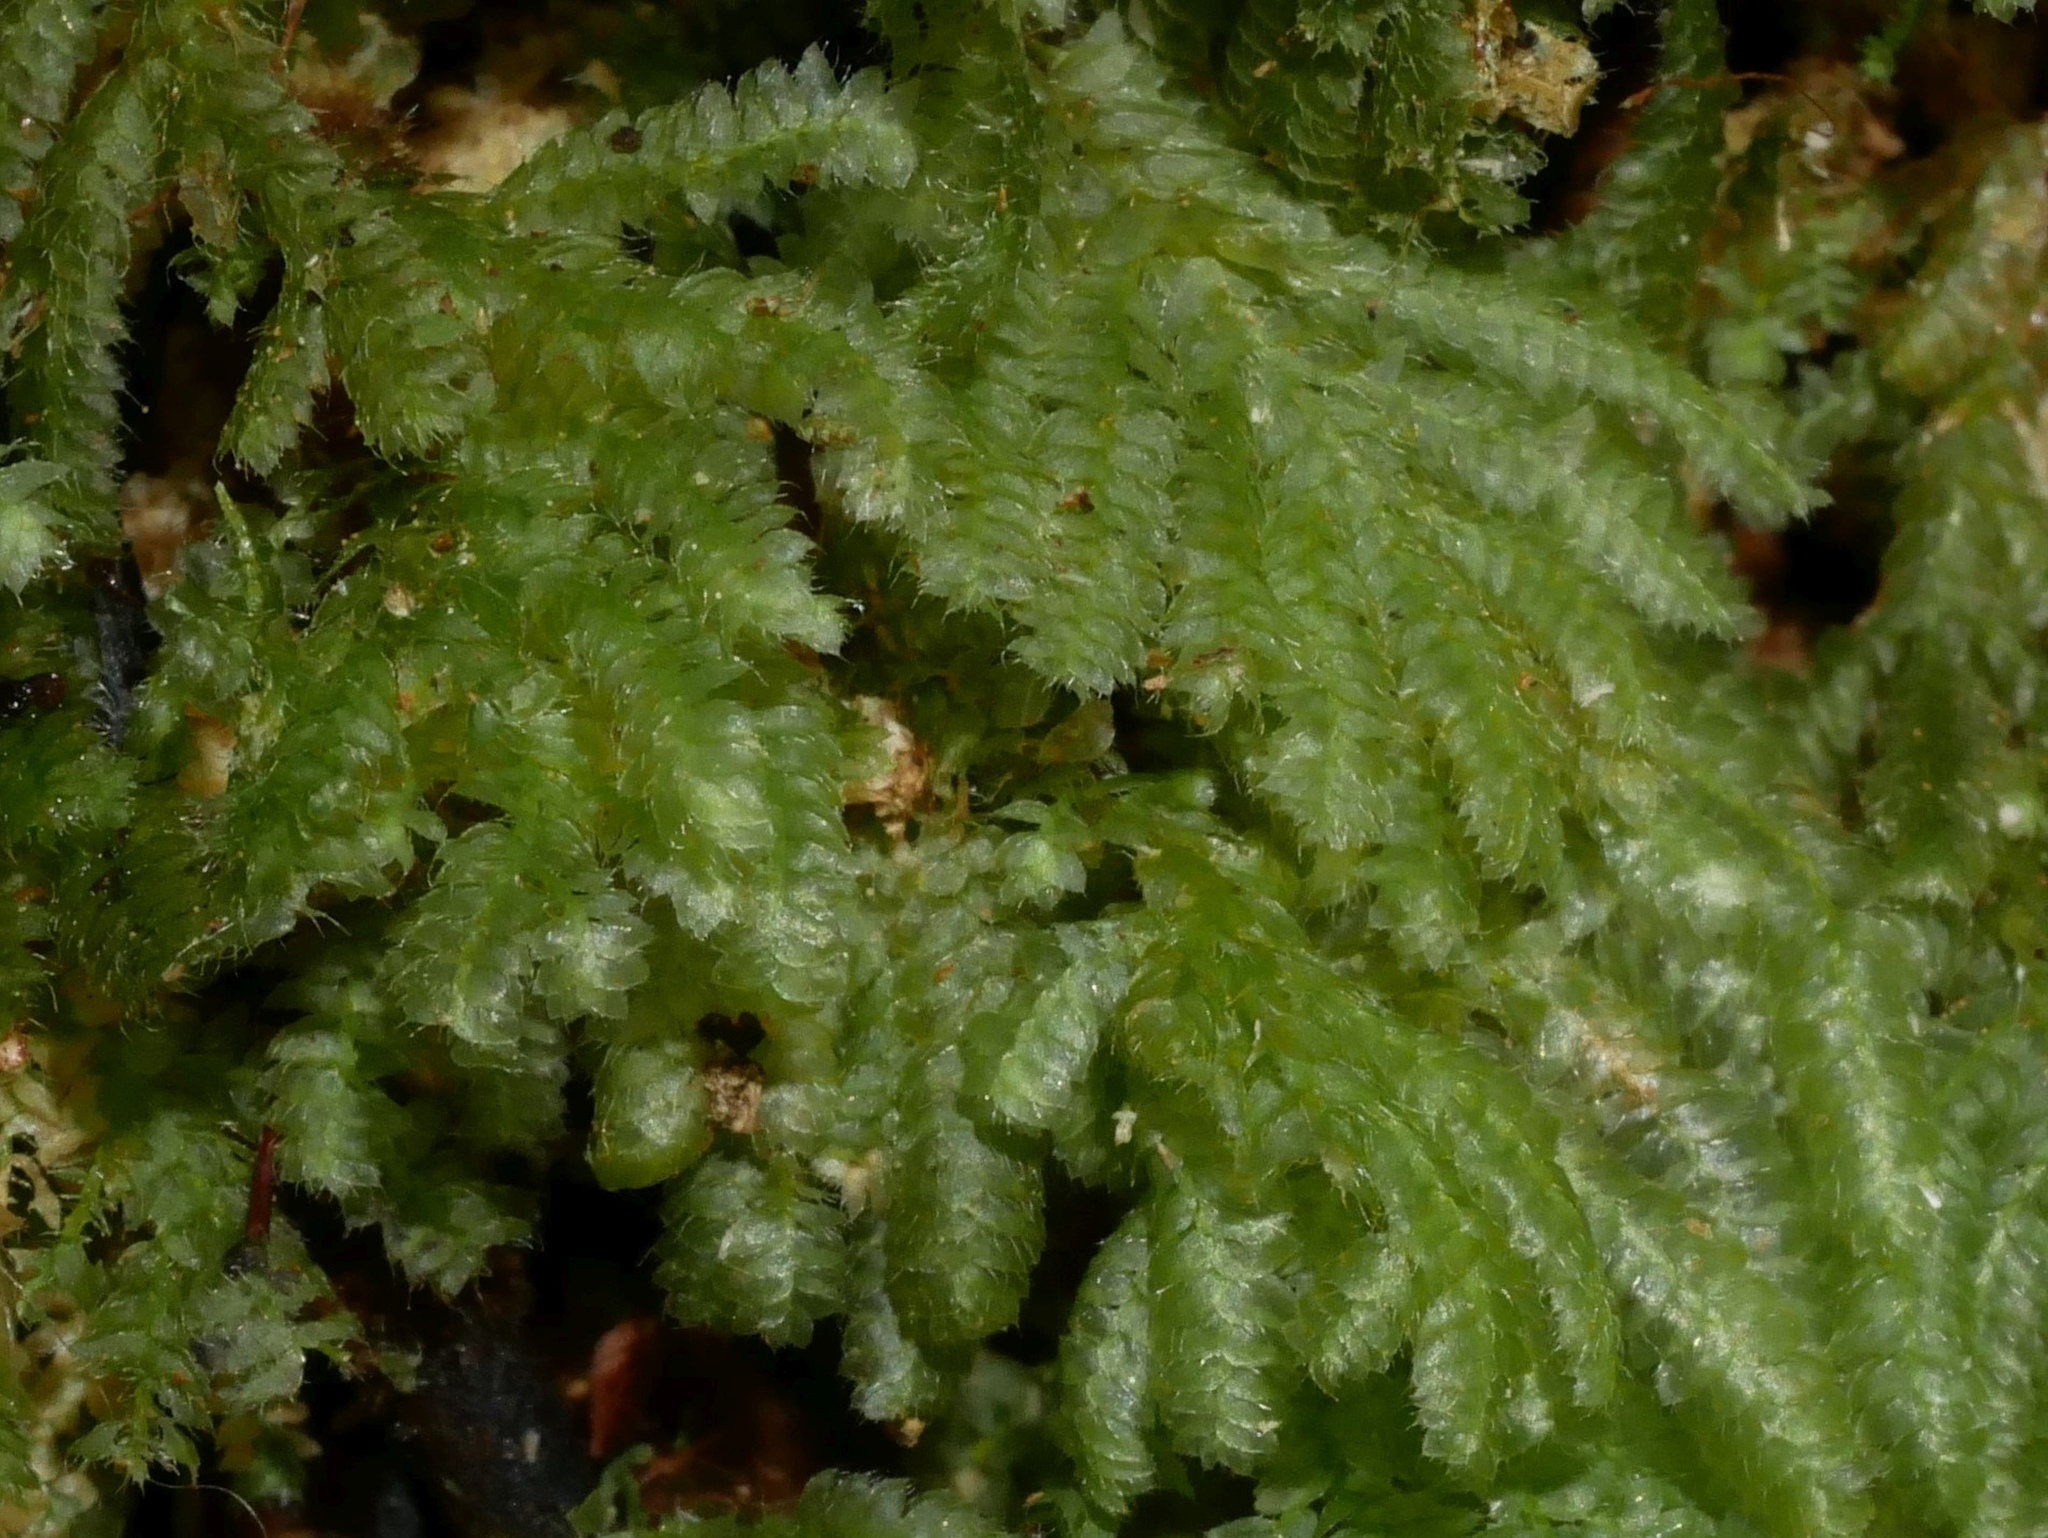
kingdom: Plantae
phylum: Bryophyta
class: Bryopsida
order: Hypopterygiales
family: Hypopterygiaceae
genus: Catharomnion
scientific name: Catharomnion ciliatum
